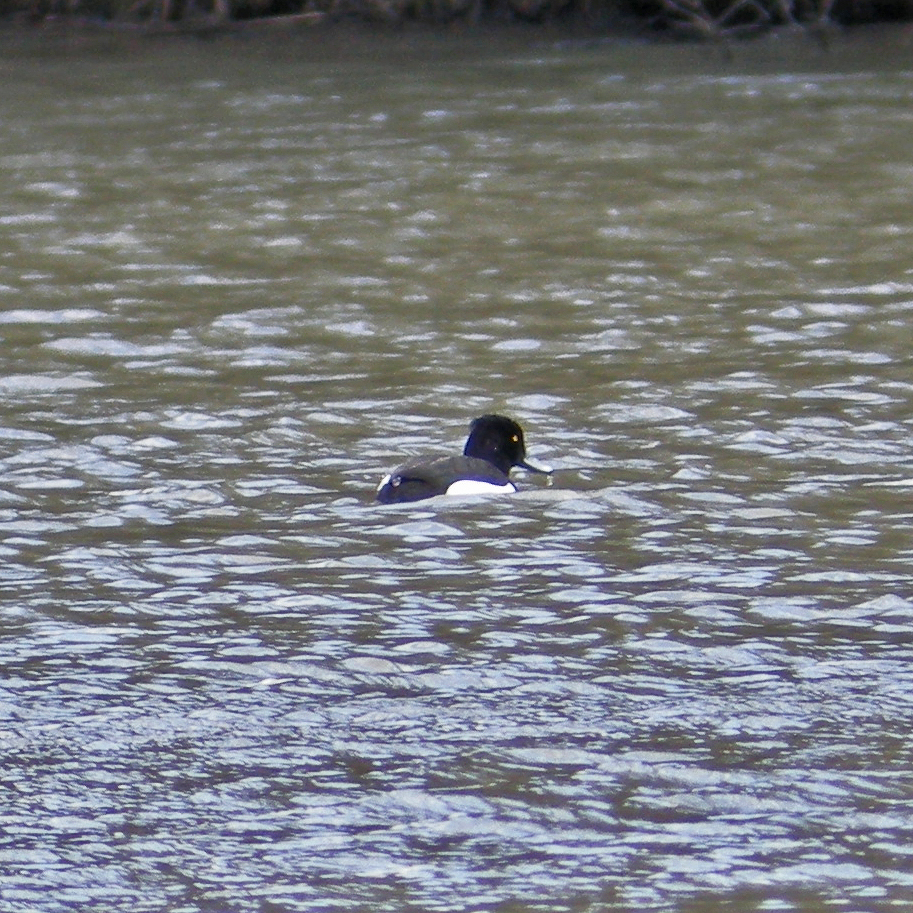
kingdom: Animalia
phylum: Chordata
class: Aves
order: Anseriformes
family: Anatidae
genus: Aythya
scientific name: Aythya fuligula
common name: Tufted duck
